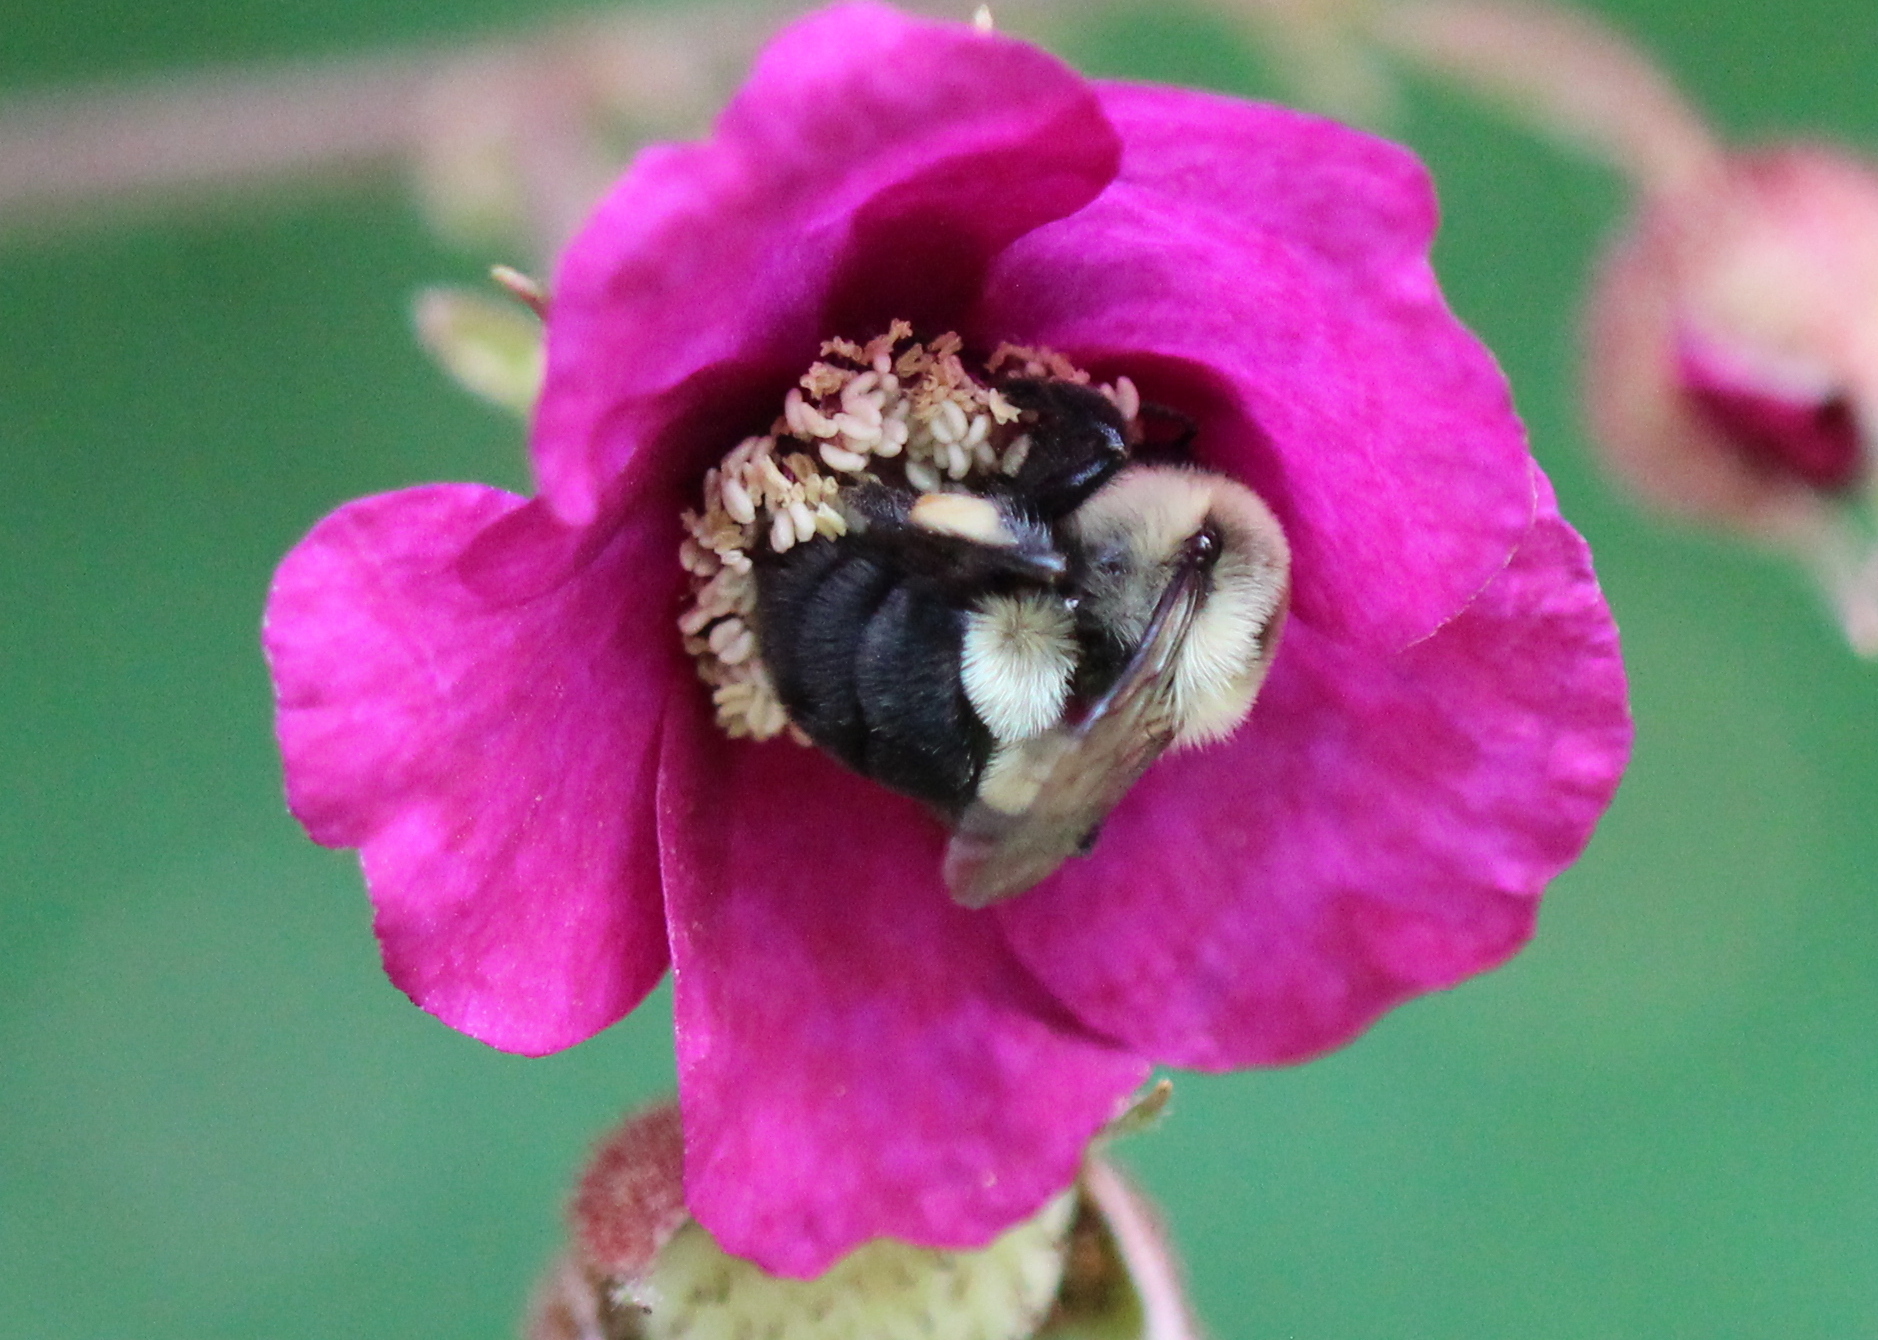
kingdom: Animalia
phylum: Arthropoda
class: Insecta
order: Hymenoptera
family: Apidae
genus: Bombus
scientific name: Bombus impatiens
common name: Common eastern bumble bee
